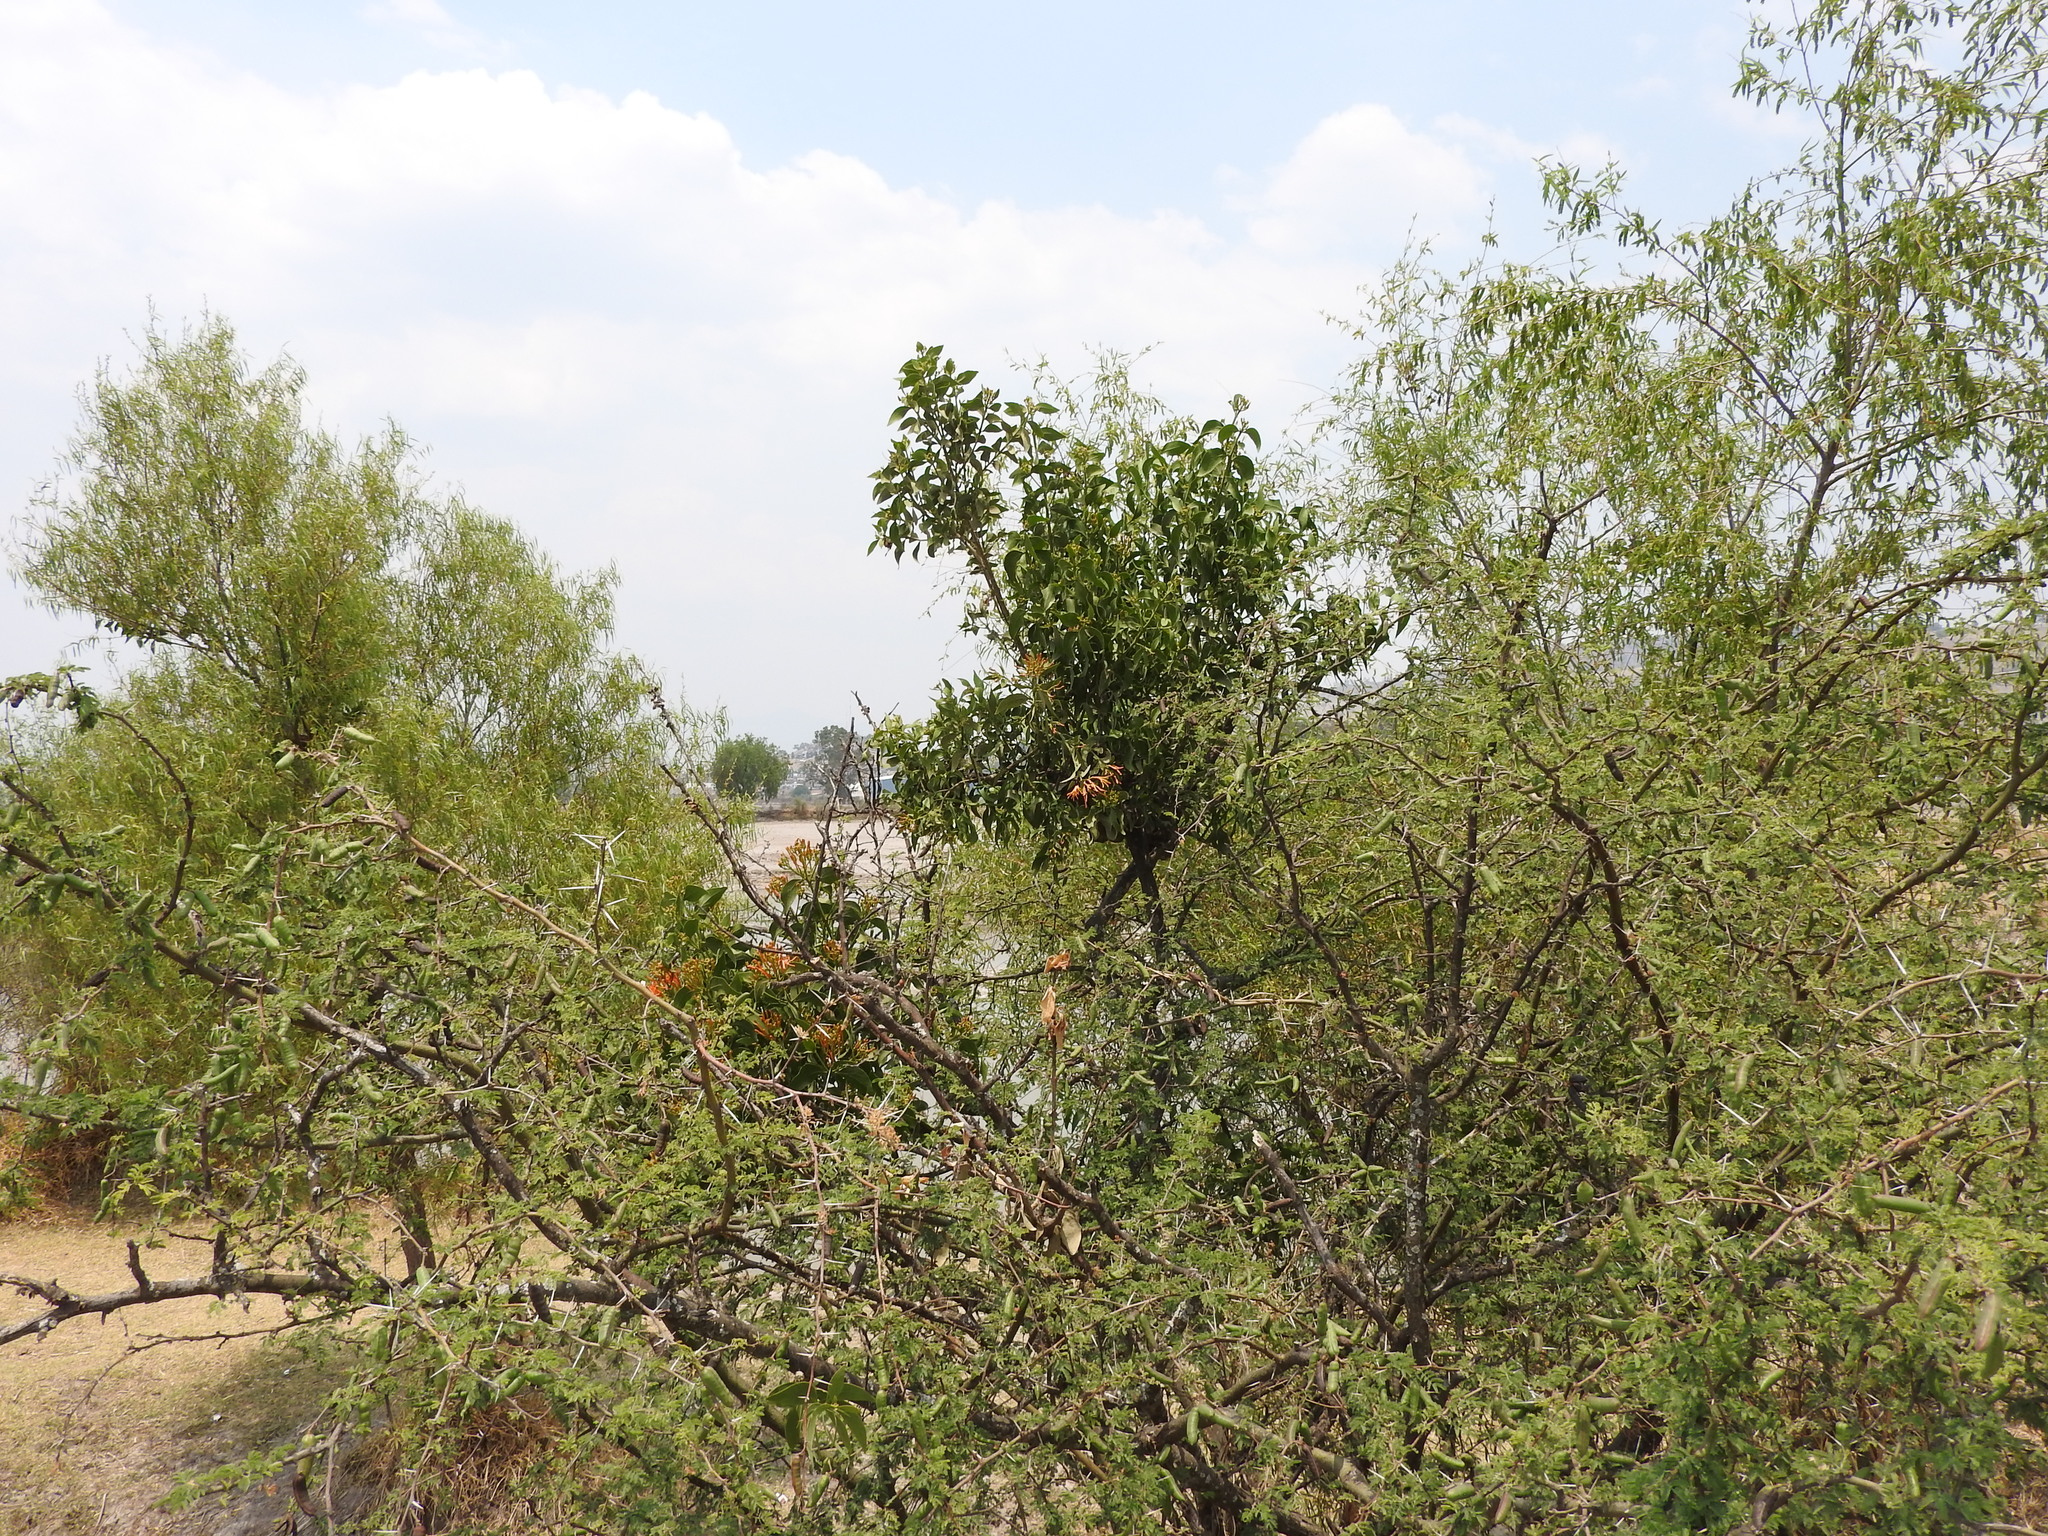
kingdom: Plantae
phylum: Tracheophyta
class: Magnoliopsida
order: Fabales
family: Fabaceae
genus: Vachellia
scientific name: Vachellia farnesiana
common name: Sweet acacia
